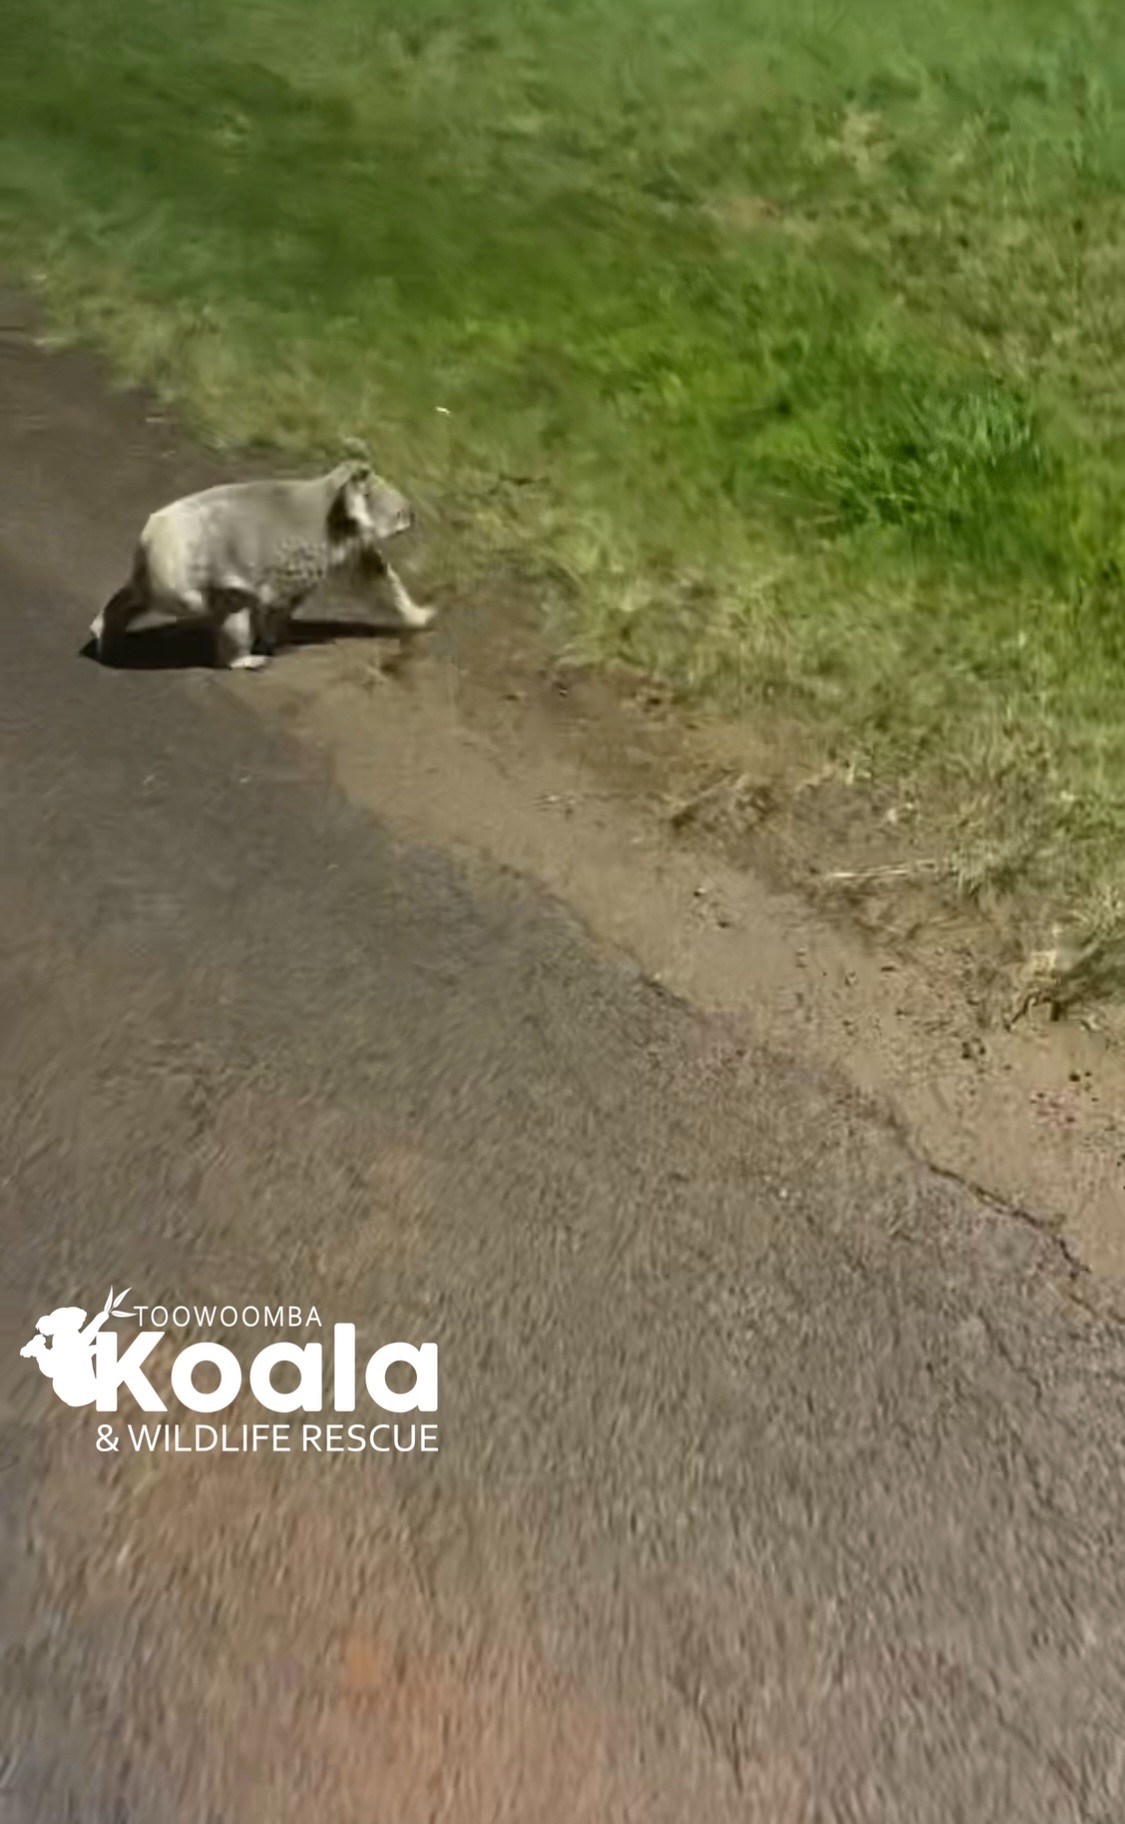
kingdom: Animalia
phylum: Chordata
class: Mammalia
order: Diprotodontia
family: Phascolarctidae
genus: Phascolarctos
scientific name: Phascolarctos cinereus
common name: Koala
